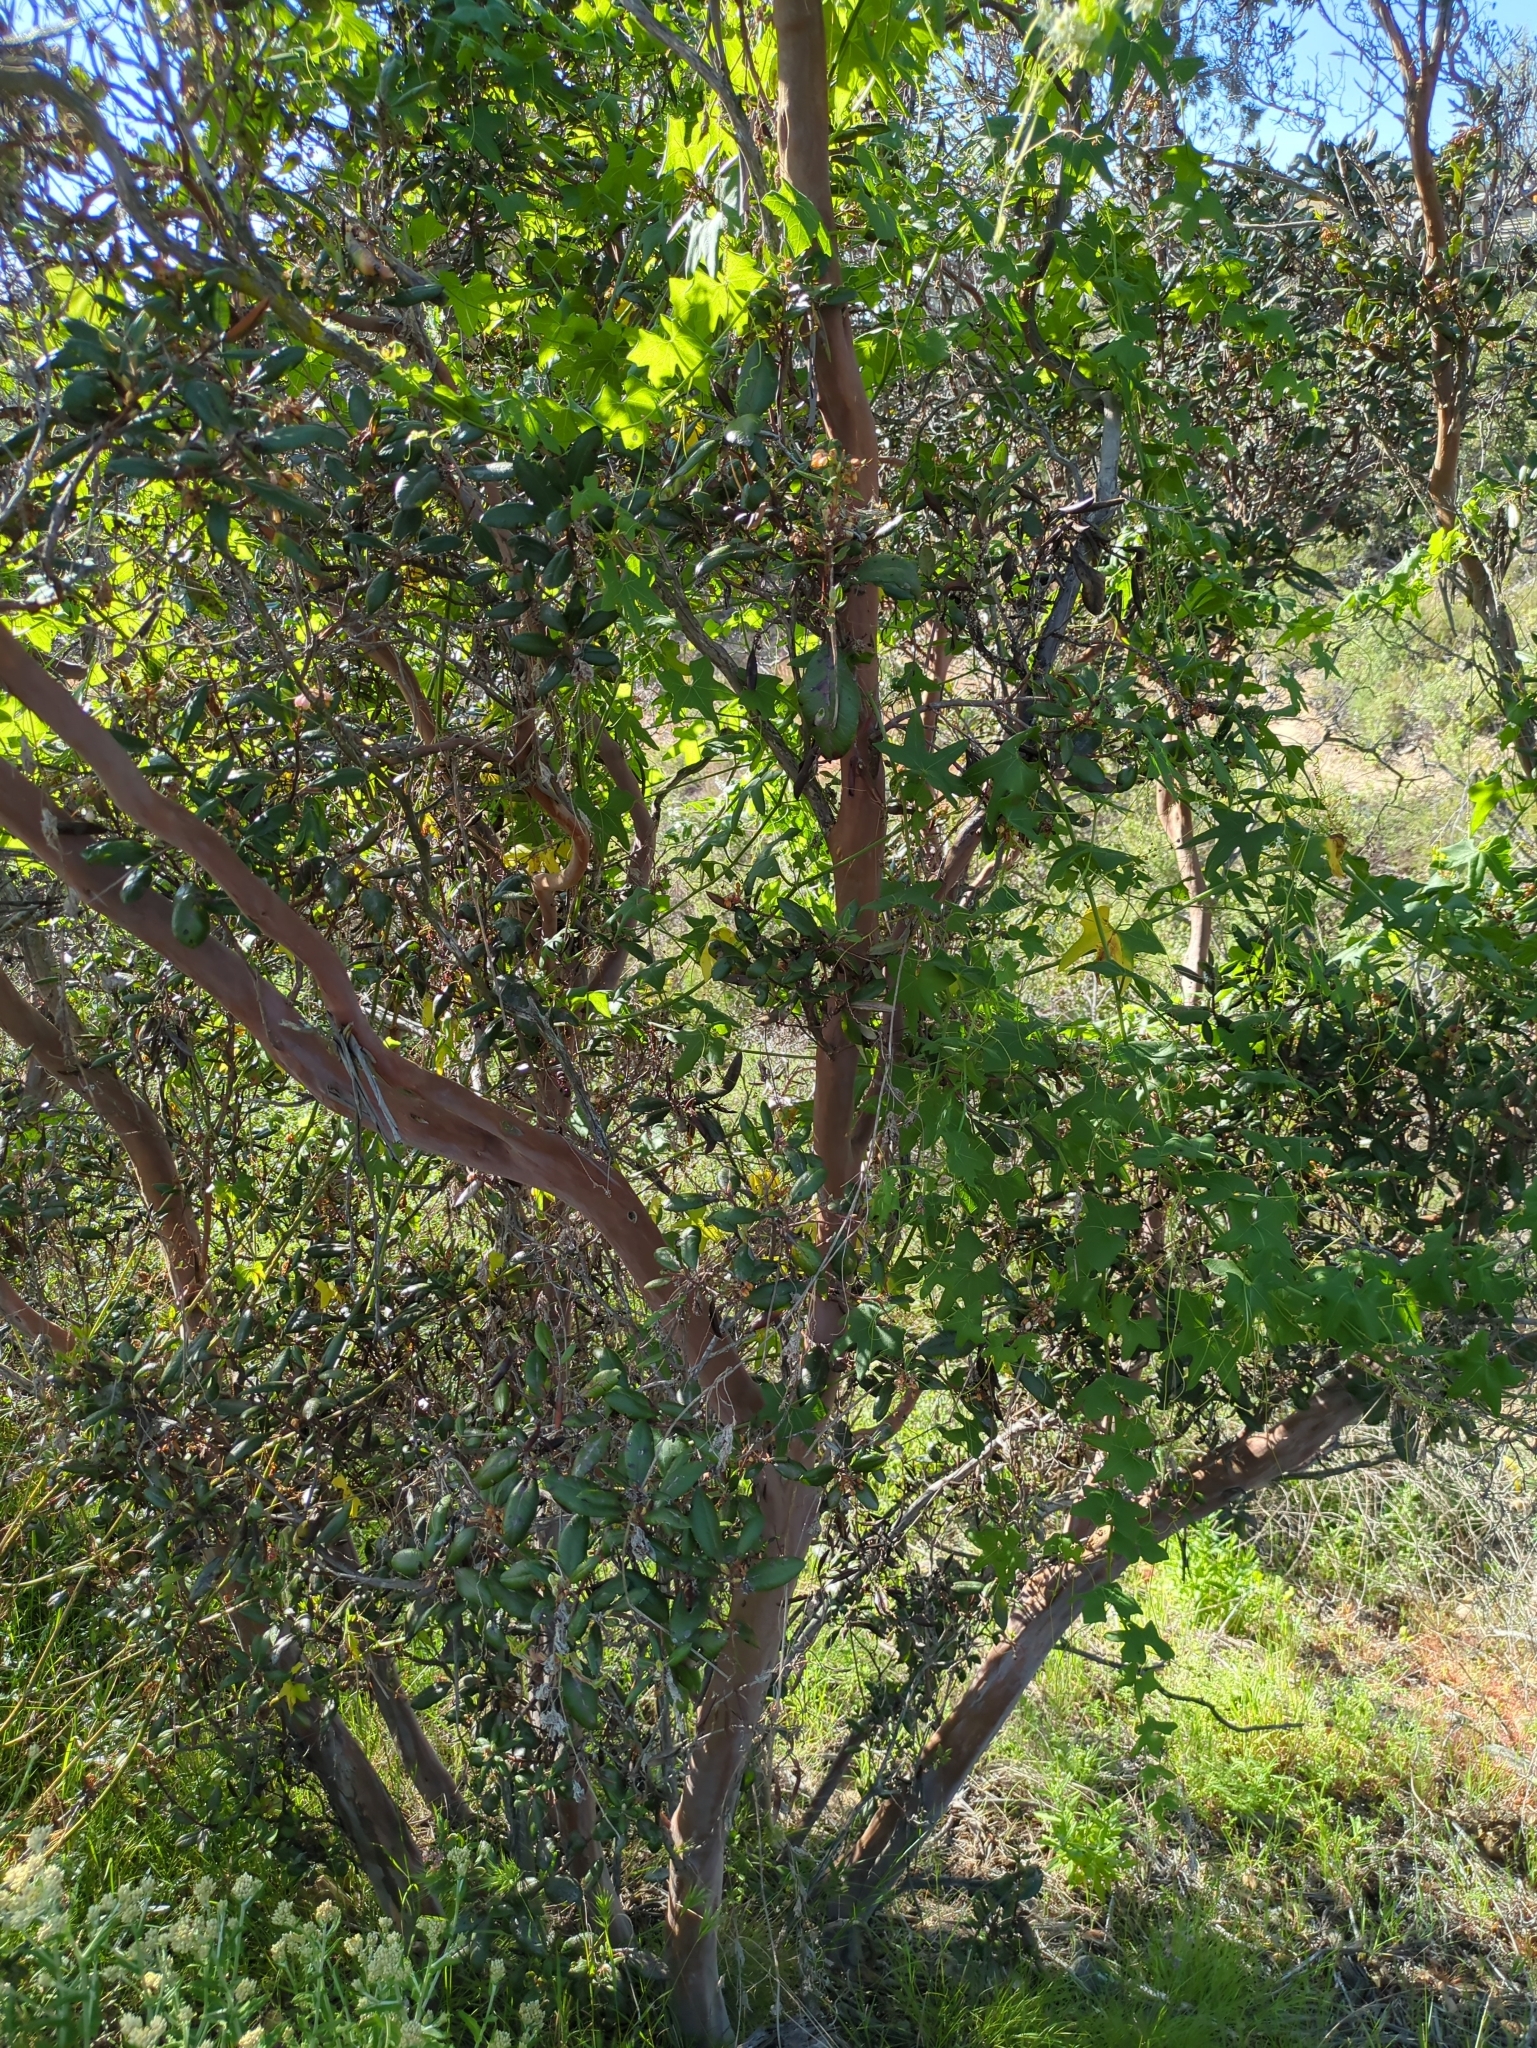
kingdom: Plantae
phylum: Tracheophyta
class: Magnoliopsida
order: Ericales
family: Ericaceae
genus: Arctostaphylos
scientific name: Arctostaphylos bicolor
